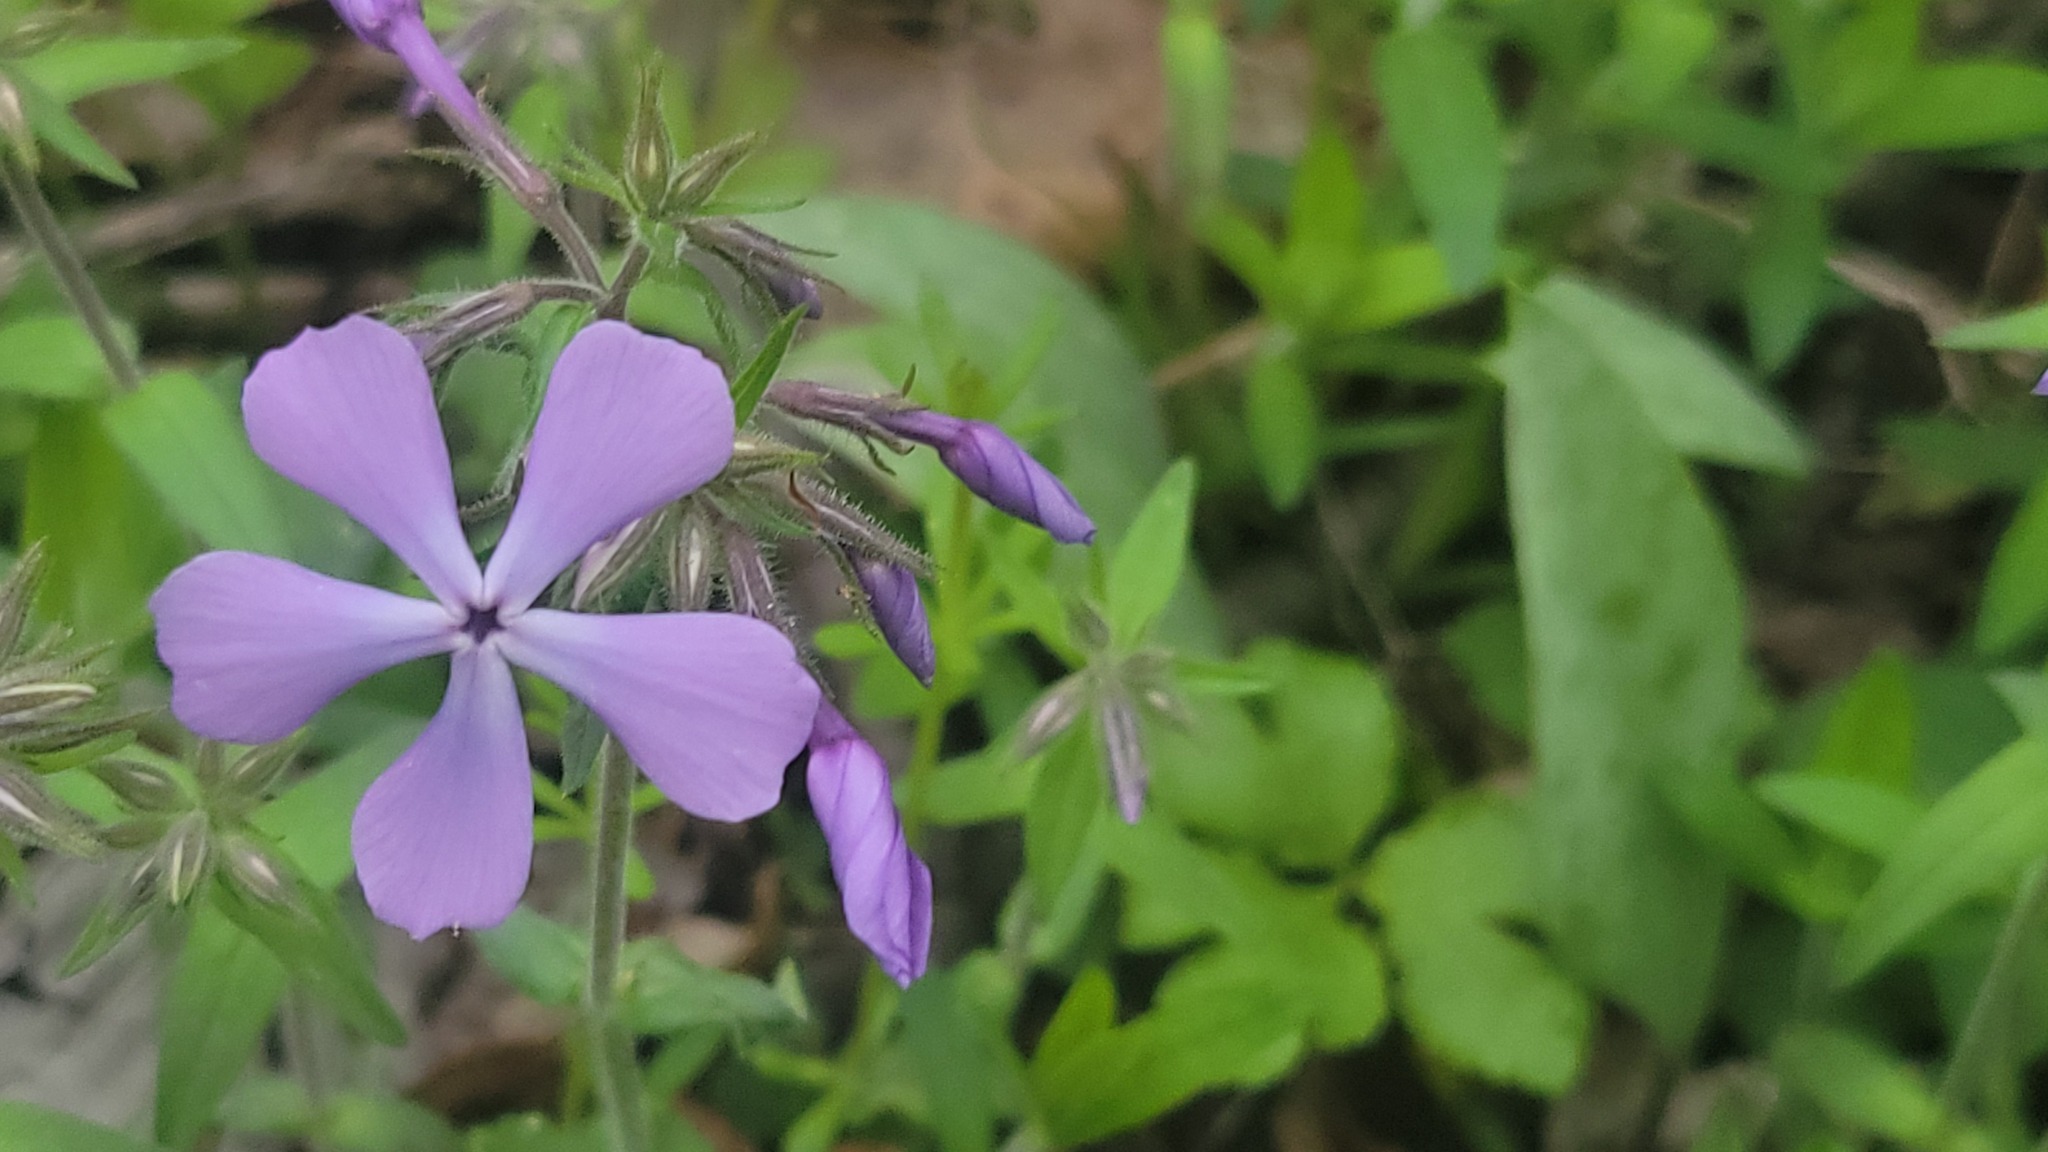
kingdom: Plantae
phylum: Tracheophyta
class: Magnoliopsida
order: Ericales
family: Polemoniaceae
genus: Phlox
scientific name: Phlox divaricata
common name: Blue phlox
